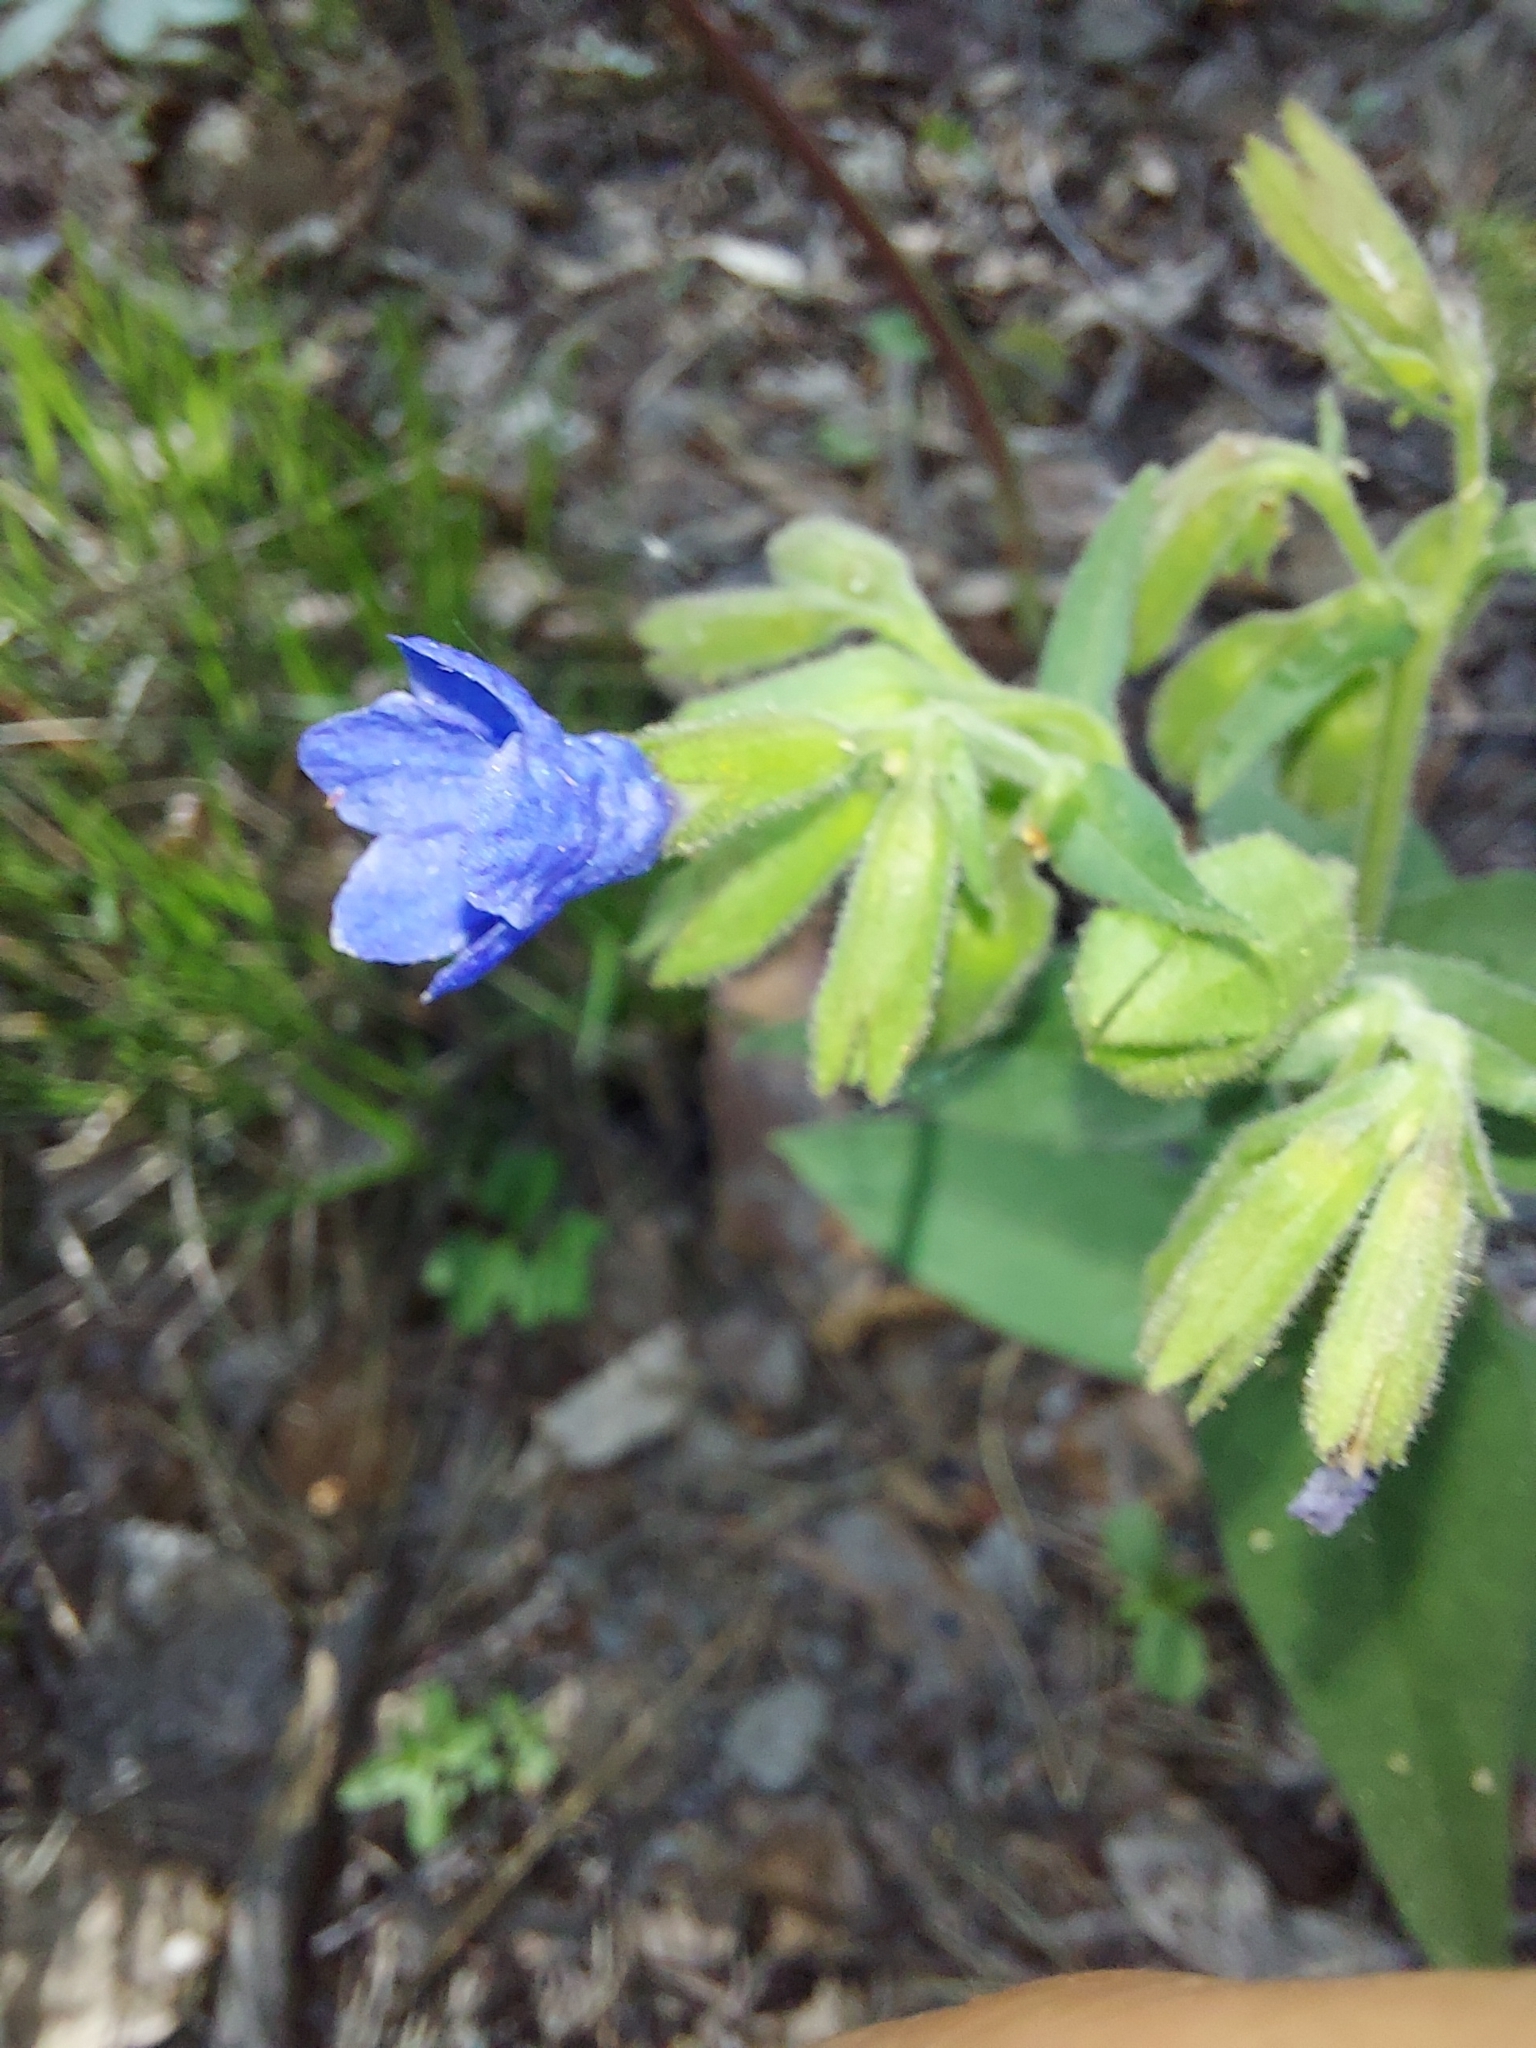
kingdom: Plantae
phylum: Tracheophyta
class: Magnoliopsida
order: Boraginales
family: Boraginaceae
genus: Pulmonaria
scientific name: Pulmonaria mollis
